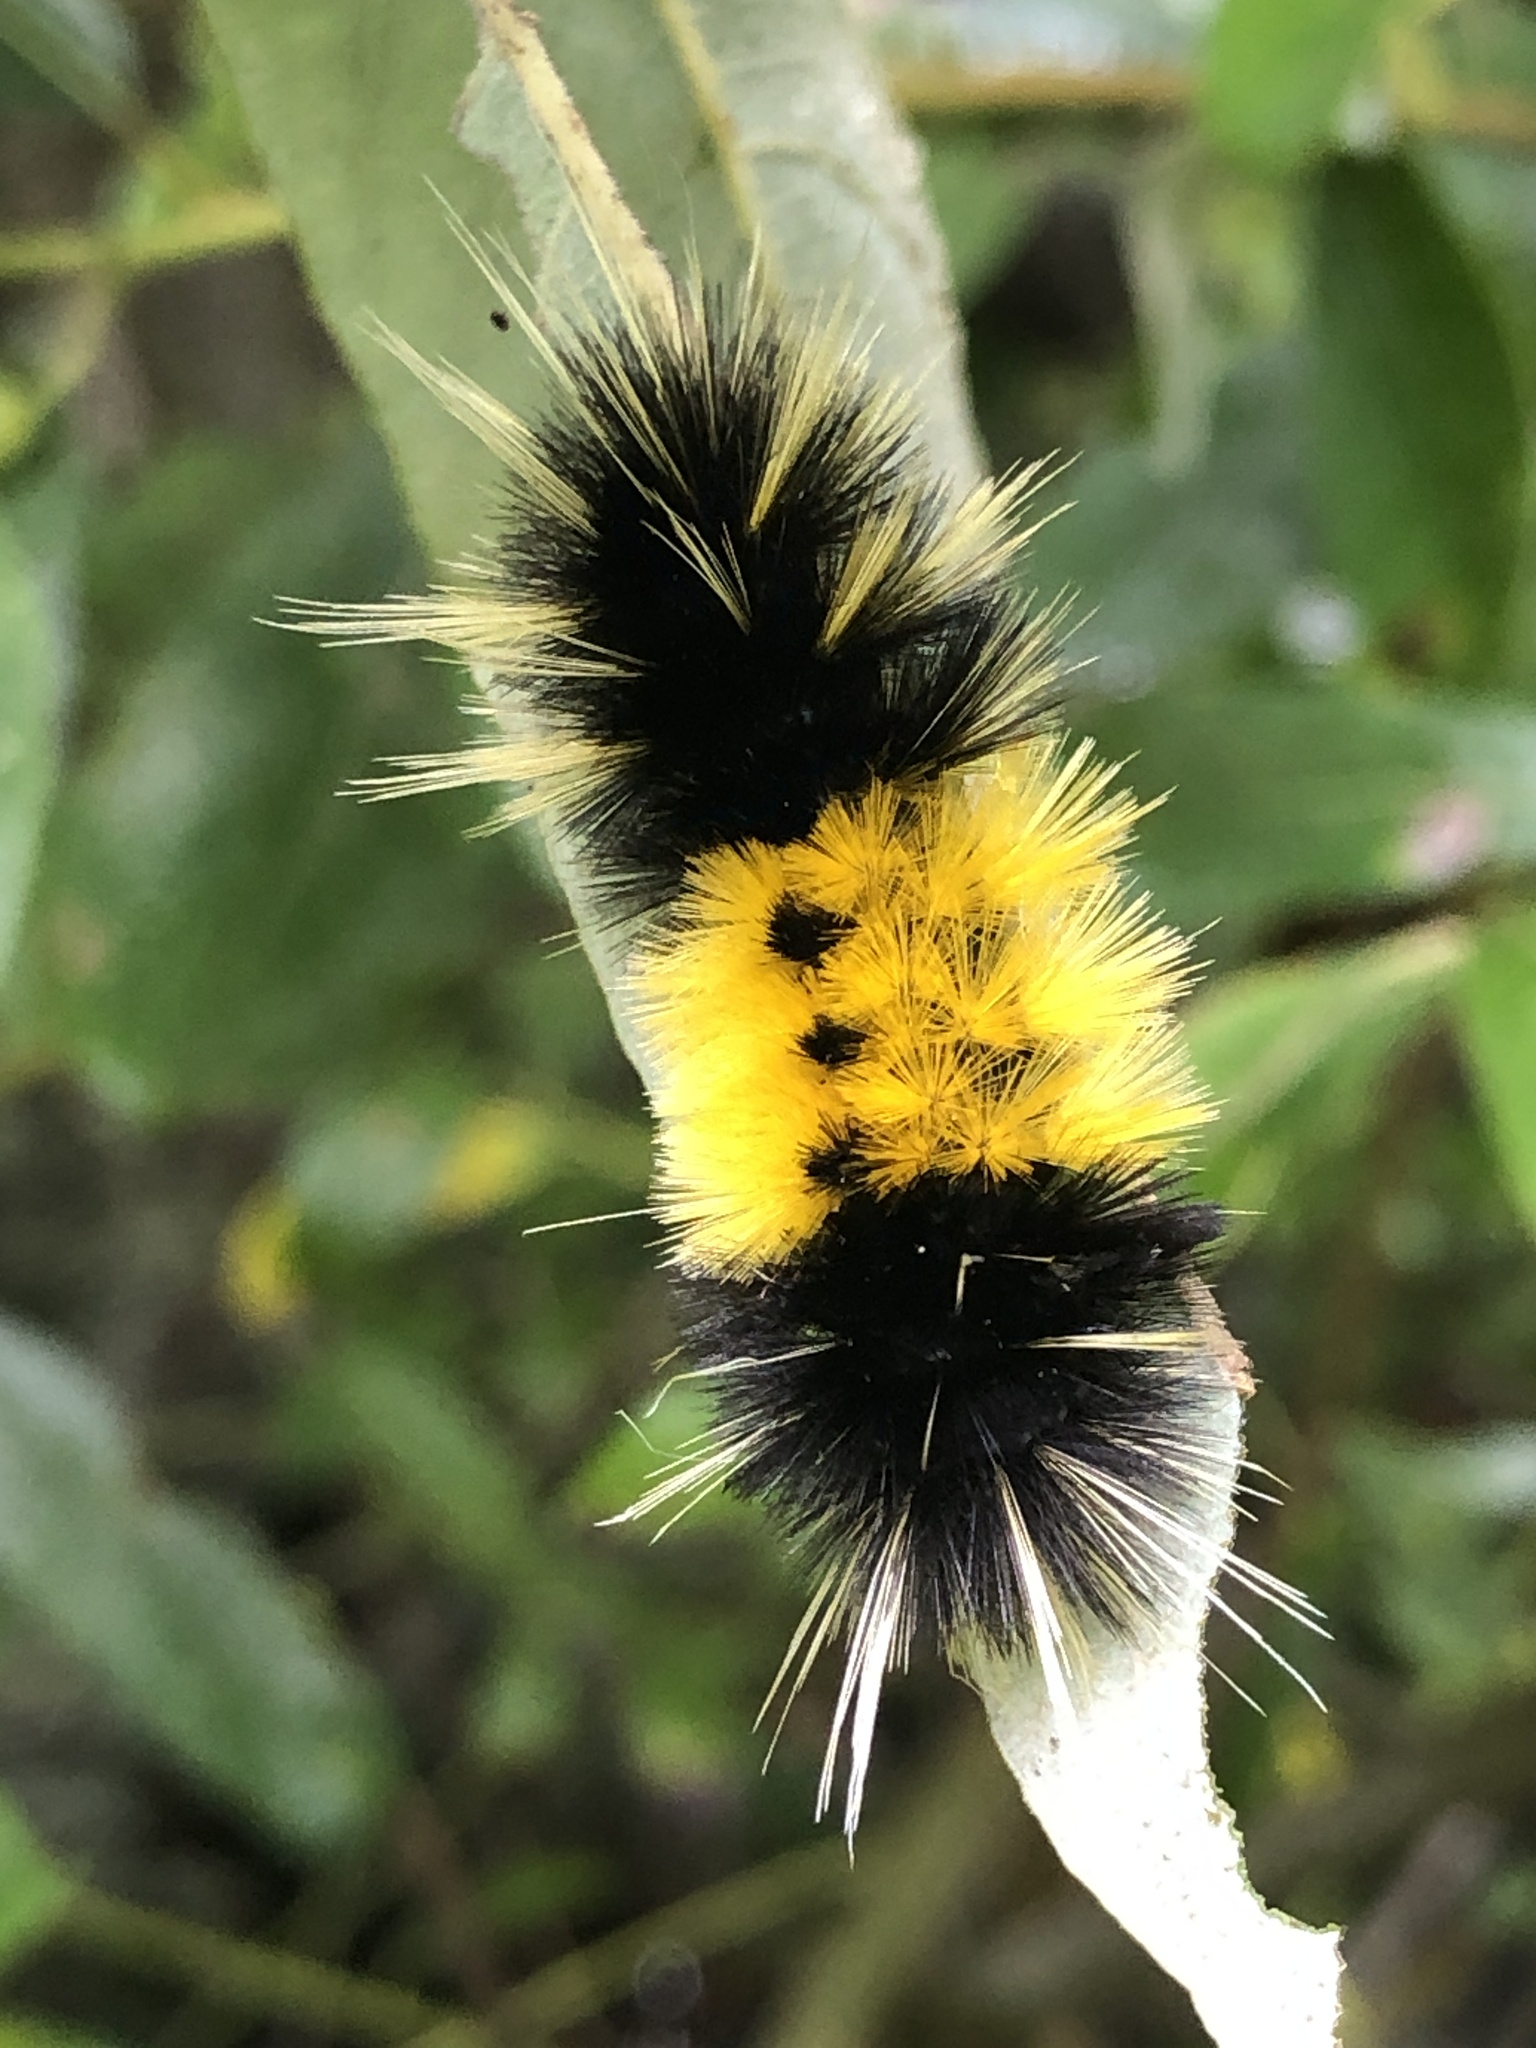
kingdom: Animalia
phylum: Arthropoda
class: Insecta
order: Lepidoptera
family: Erebidae
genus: Lophocampa
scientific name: Lophocampa maculata
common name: Spotted tussock moth
